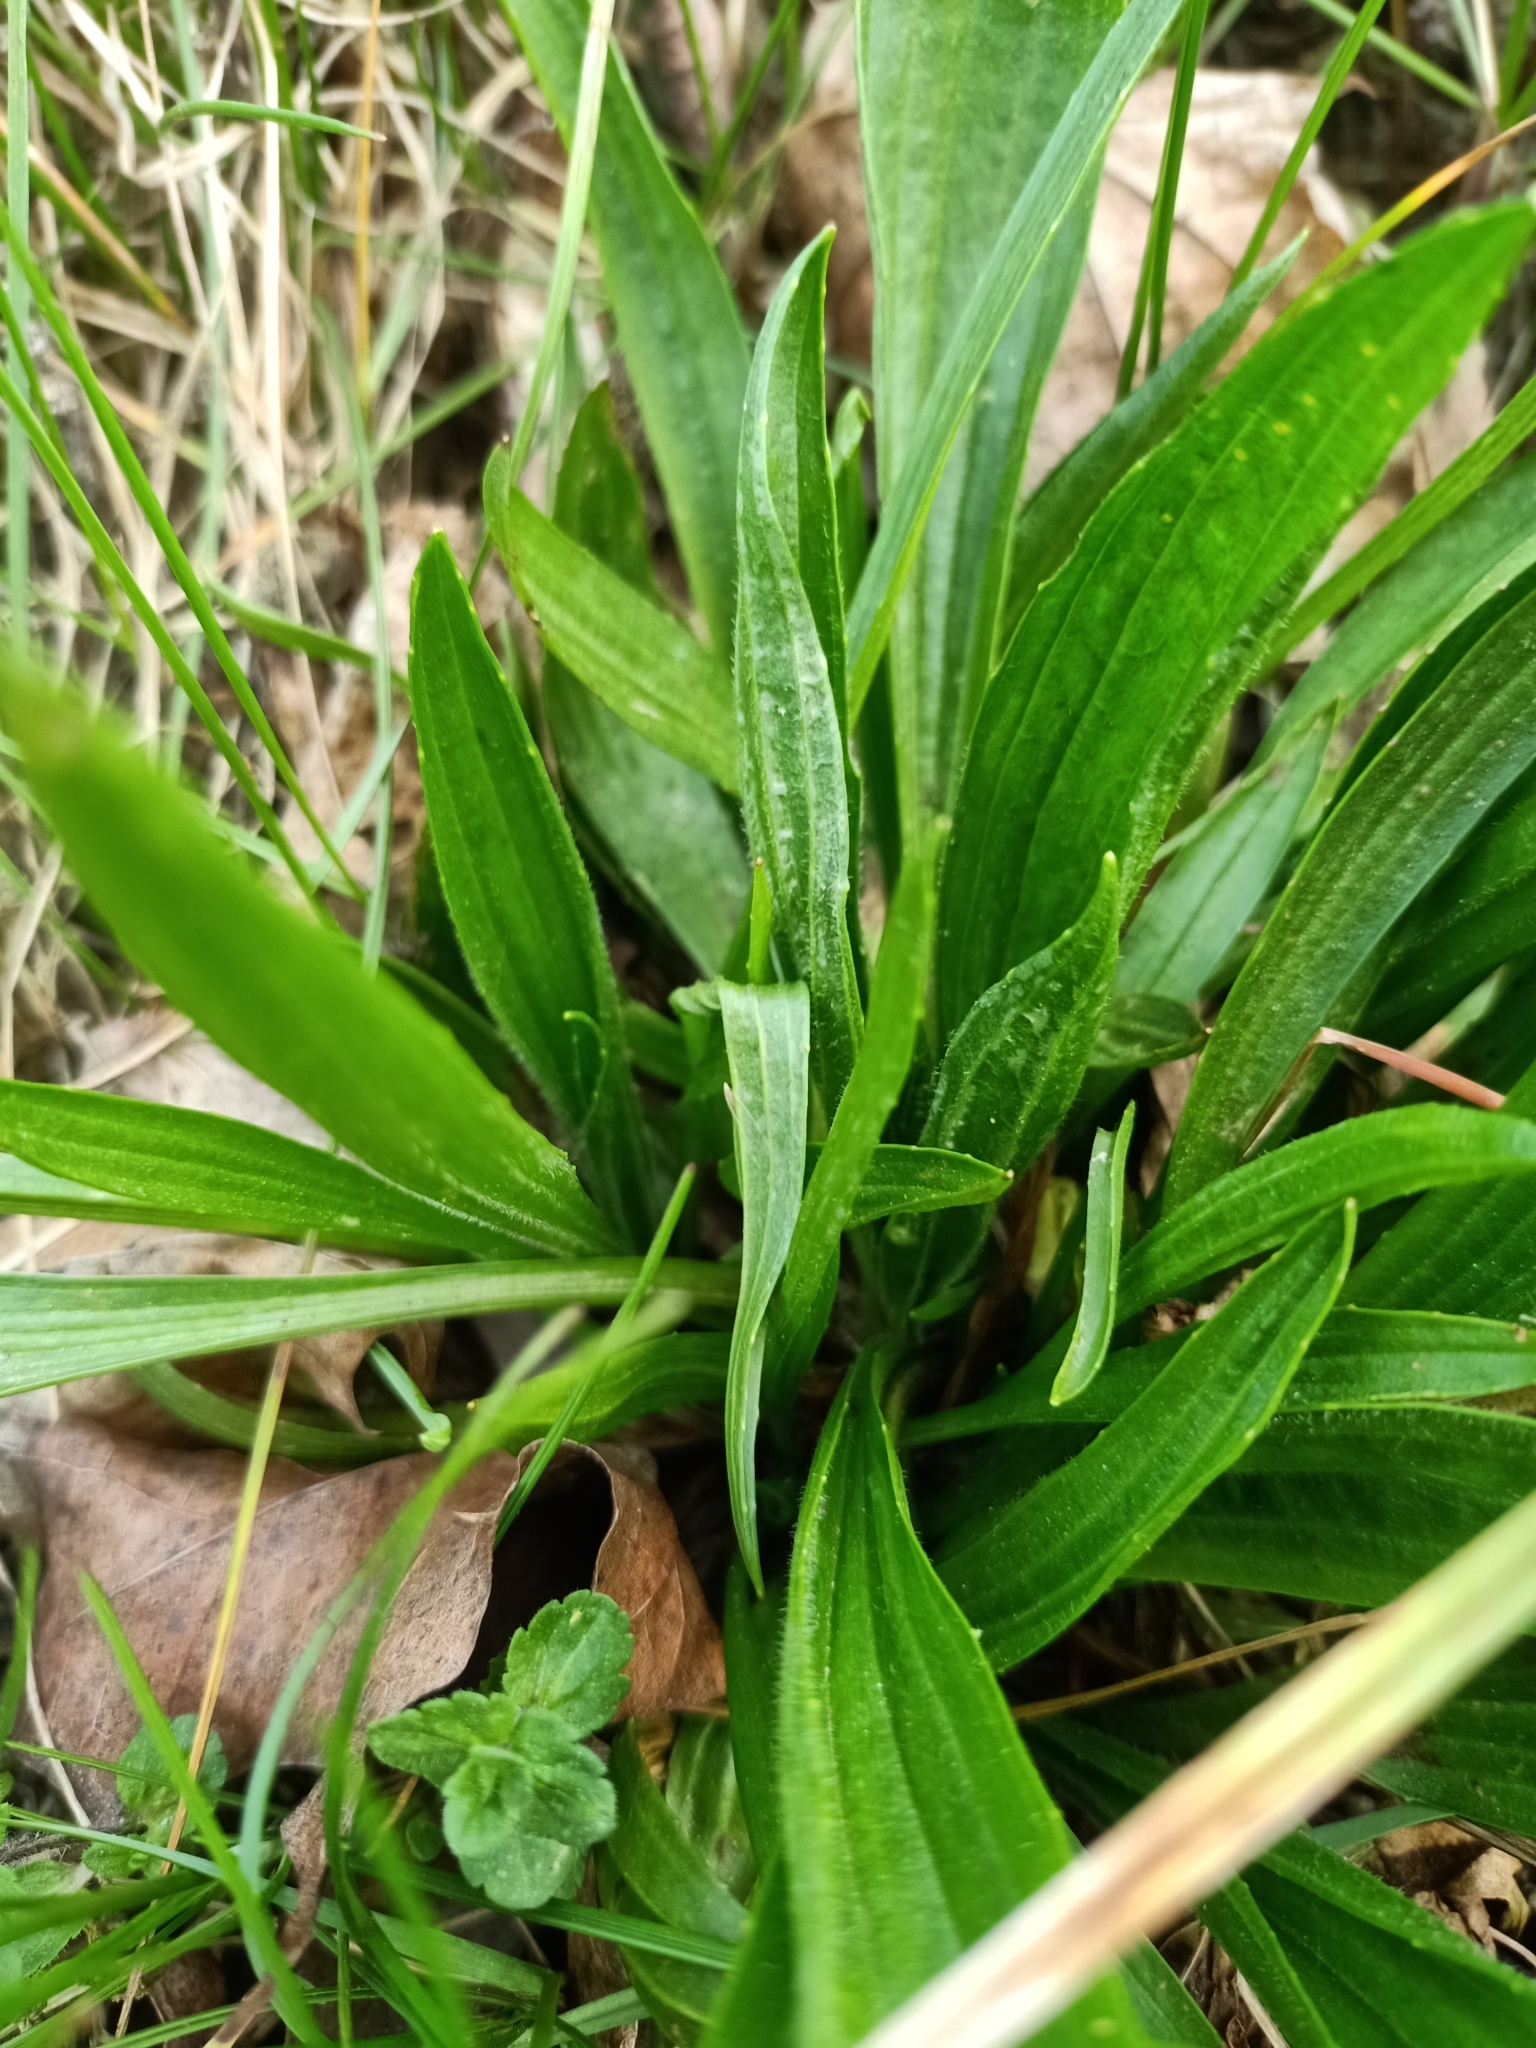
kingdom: Plantae
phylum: Tracheophyta
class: Magnoliopsida
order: Lamiales
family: Plantaginaceae
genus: Plantago
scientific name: Plantago lanceolata
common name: Ribwort plantain
